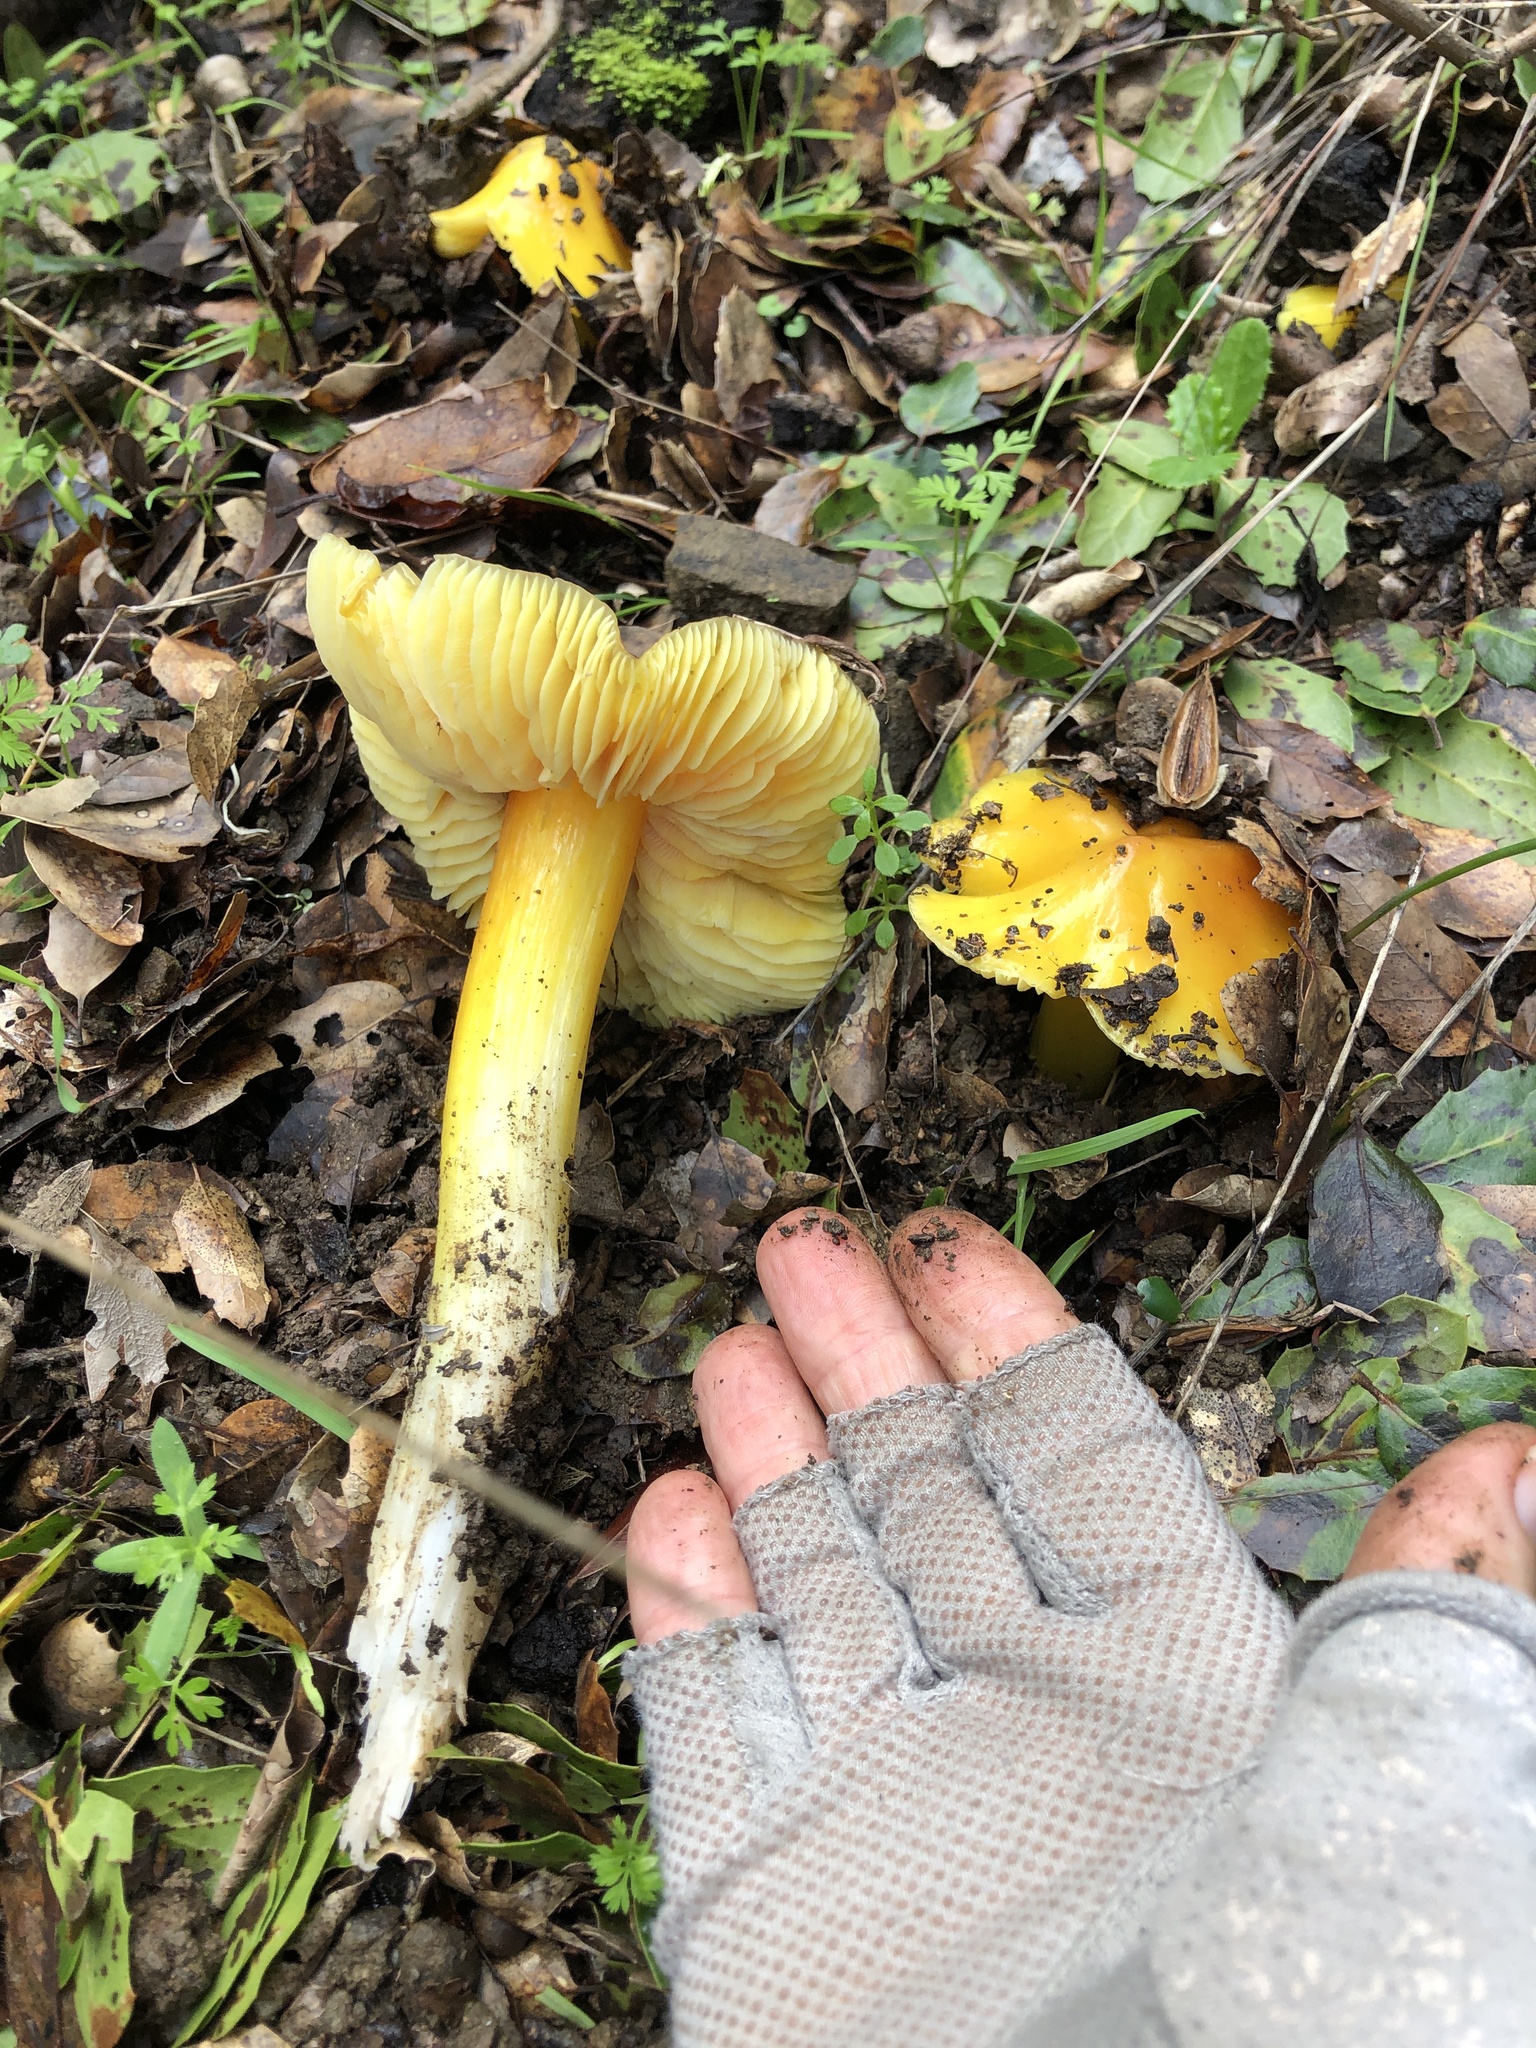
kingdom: Fungi
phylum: Basidiomycota
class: Agaricomycetes
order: Agaricales
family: Hygrophoraceae
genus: Hygrocybe
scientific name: Hygrocybe flavescens
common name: Golden waxy cap
